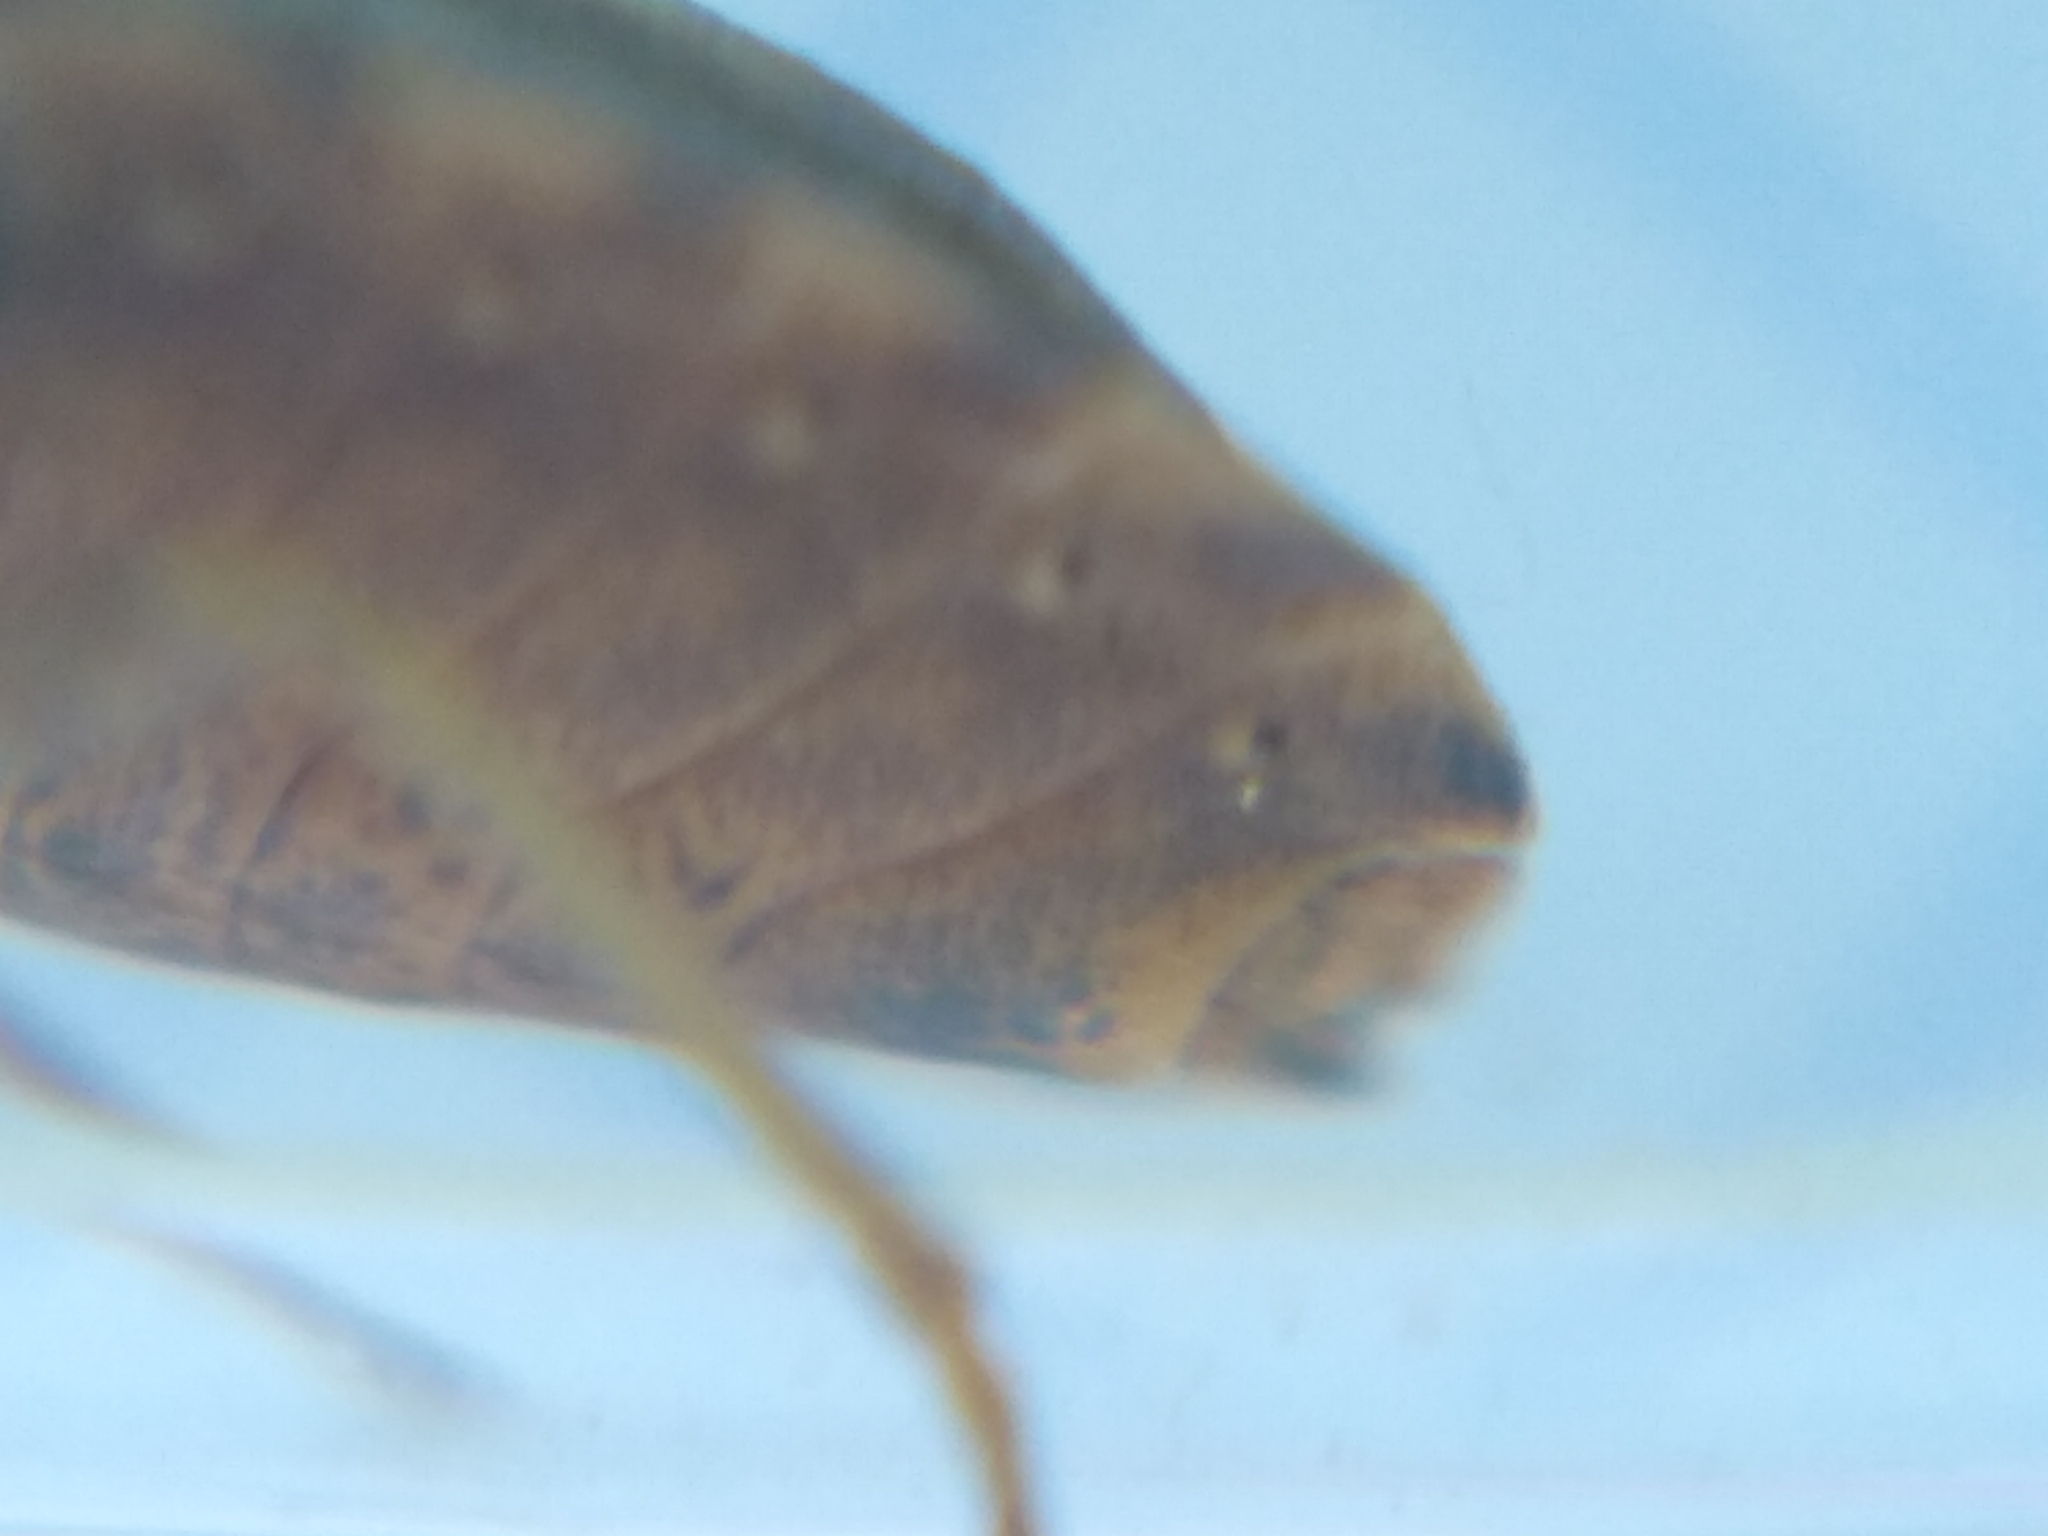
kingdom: Animalia
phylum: Arthropoda
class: Insecta
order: Hemiptera
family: Scutelleridae
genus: Eurygaster
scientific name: Eurygaster testudinaria
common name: Tortoise bug
